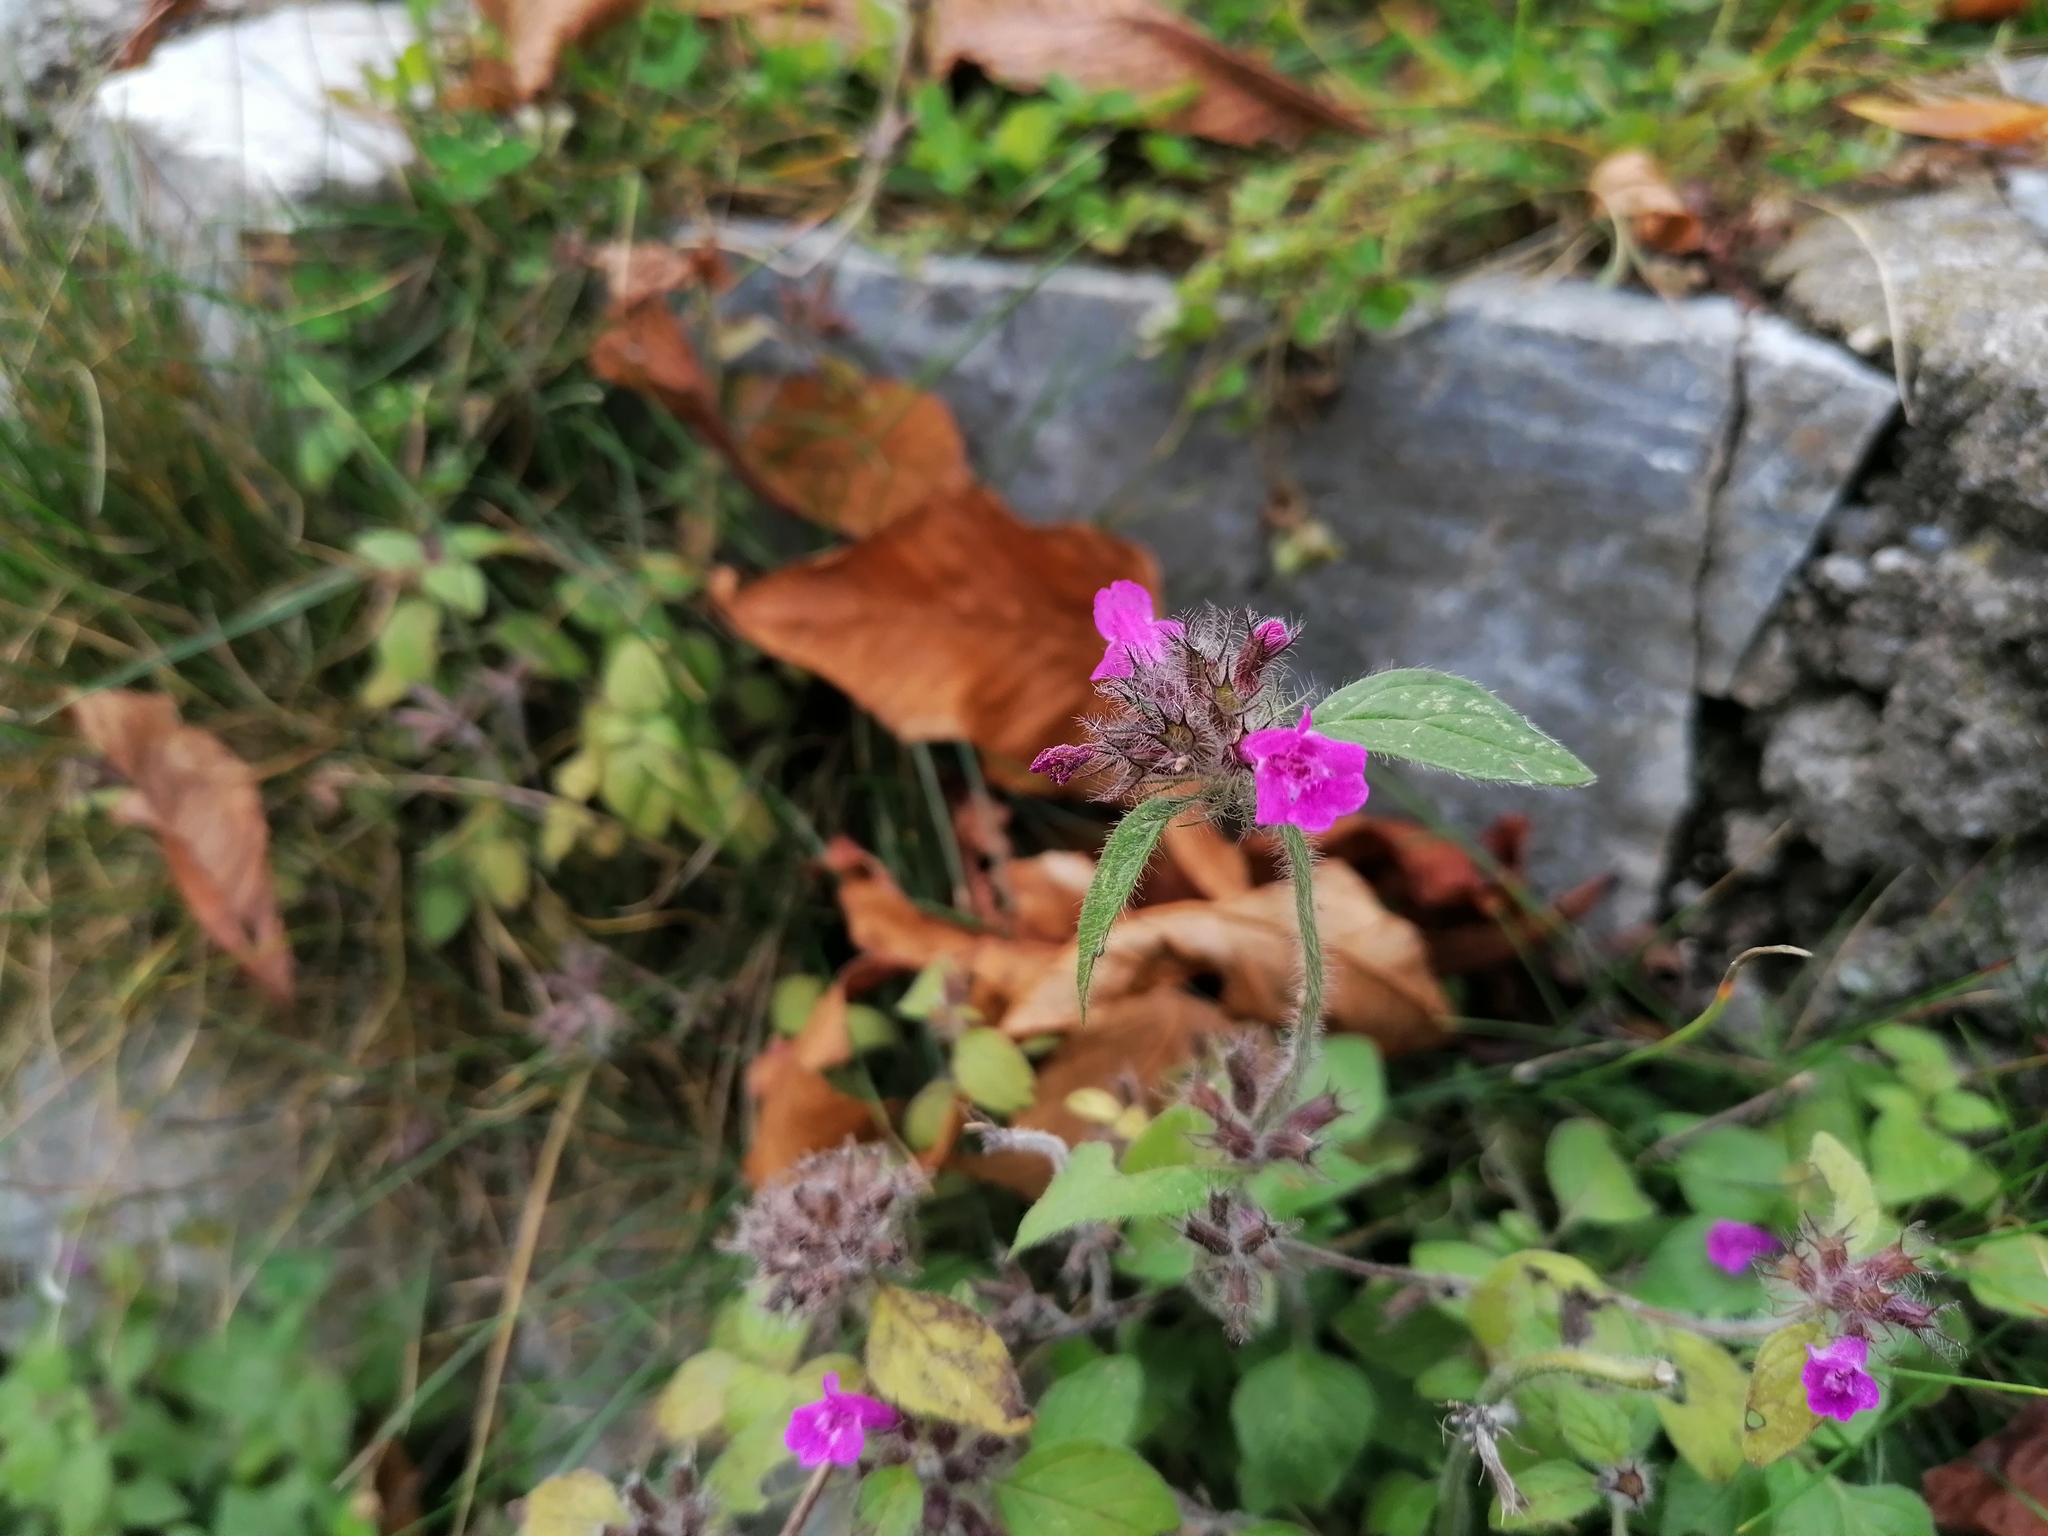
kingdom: Plantae
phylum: Tracheophyta
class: Magnoliopsida
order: Lamiales
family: Lamiaceae
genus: Clinopodium
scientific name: Clinopodium vulgare
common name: Wild basil
